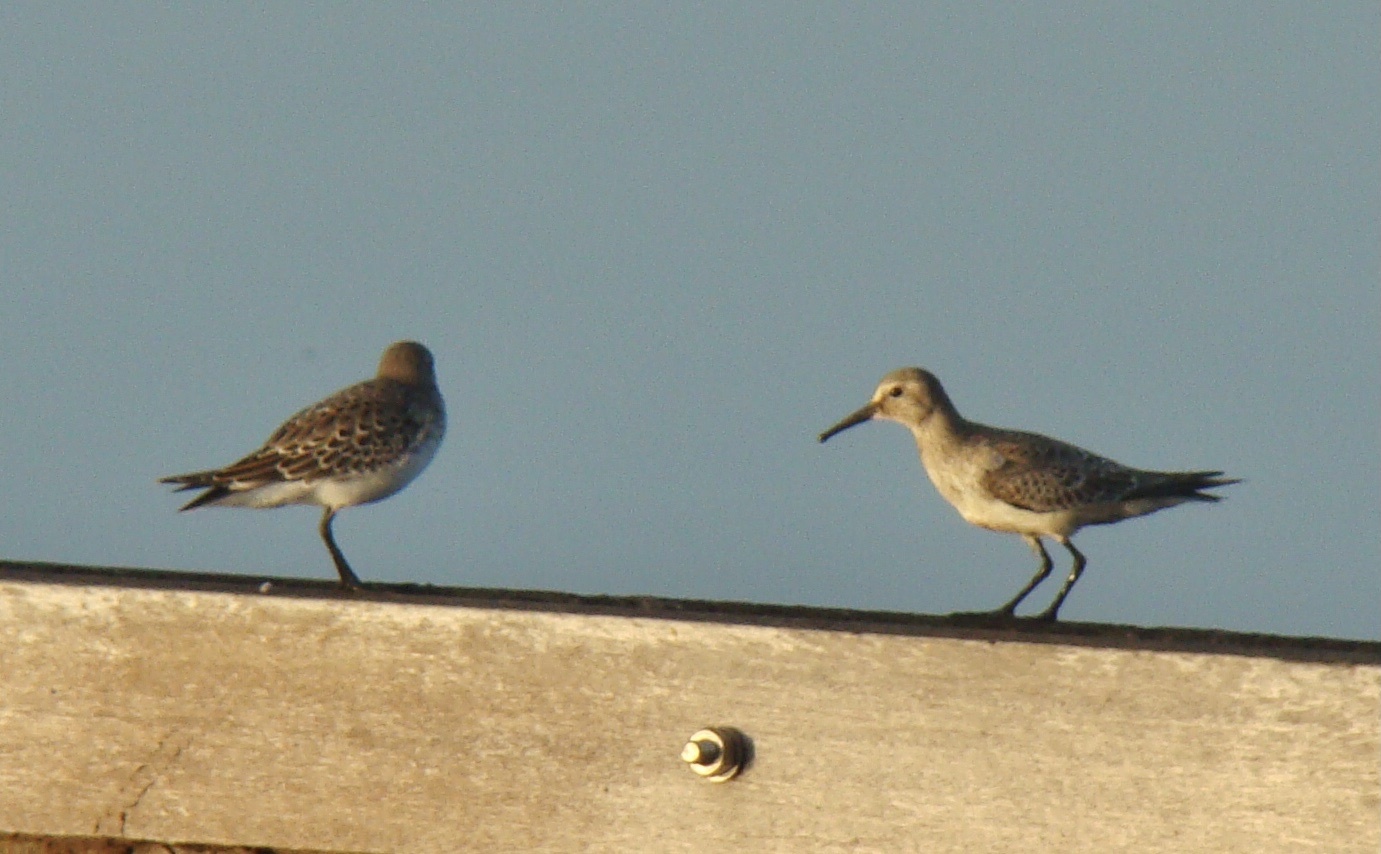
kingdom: Animalia
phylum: Chordata
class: Aves
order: Charadriiformes
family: Scolopacidae
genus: Calidris
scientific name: Calidris fuscicollis
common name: White-rumped sandpiper
